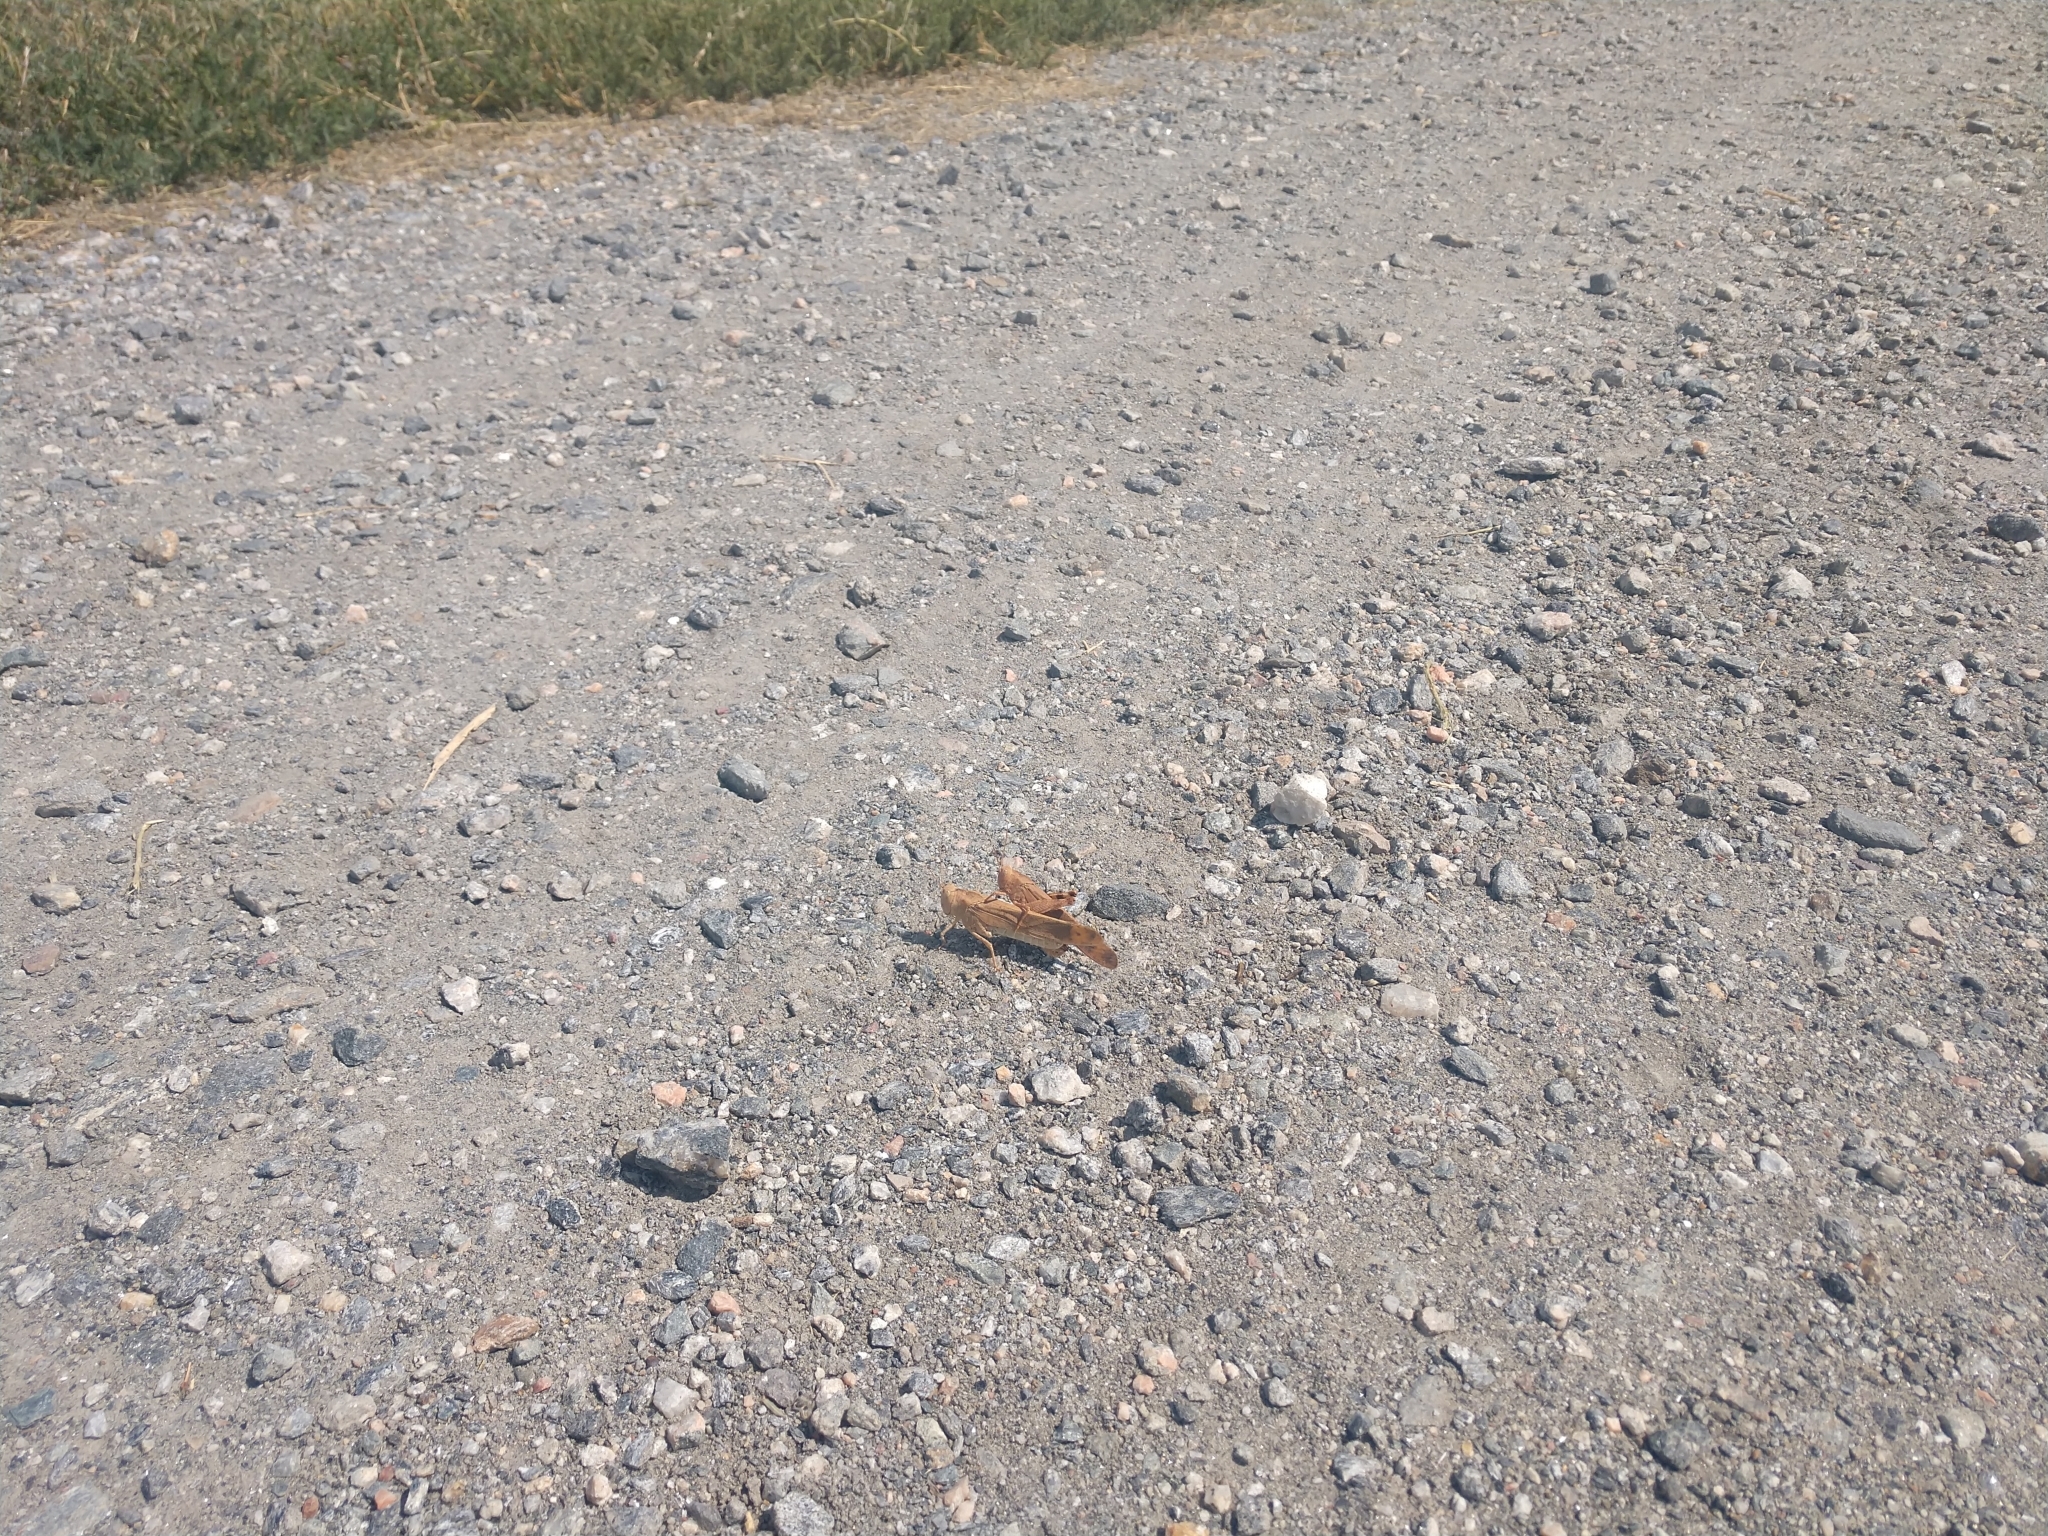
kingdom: Animalia
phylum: Arthropoda
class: Insecta
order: Orthoptera
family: Acrididae
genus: Dissosteira
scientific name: Dissosteira carolina
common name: Carolina grasshopper
